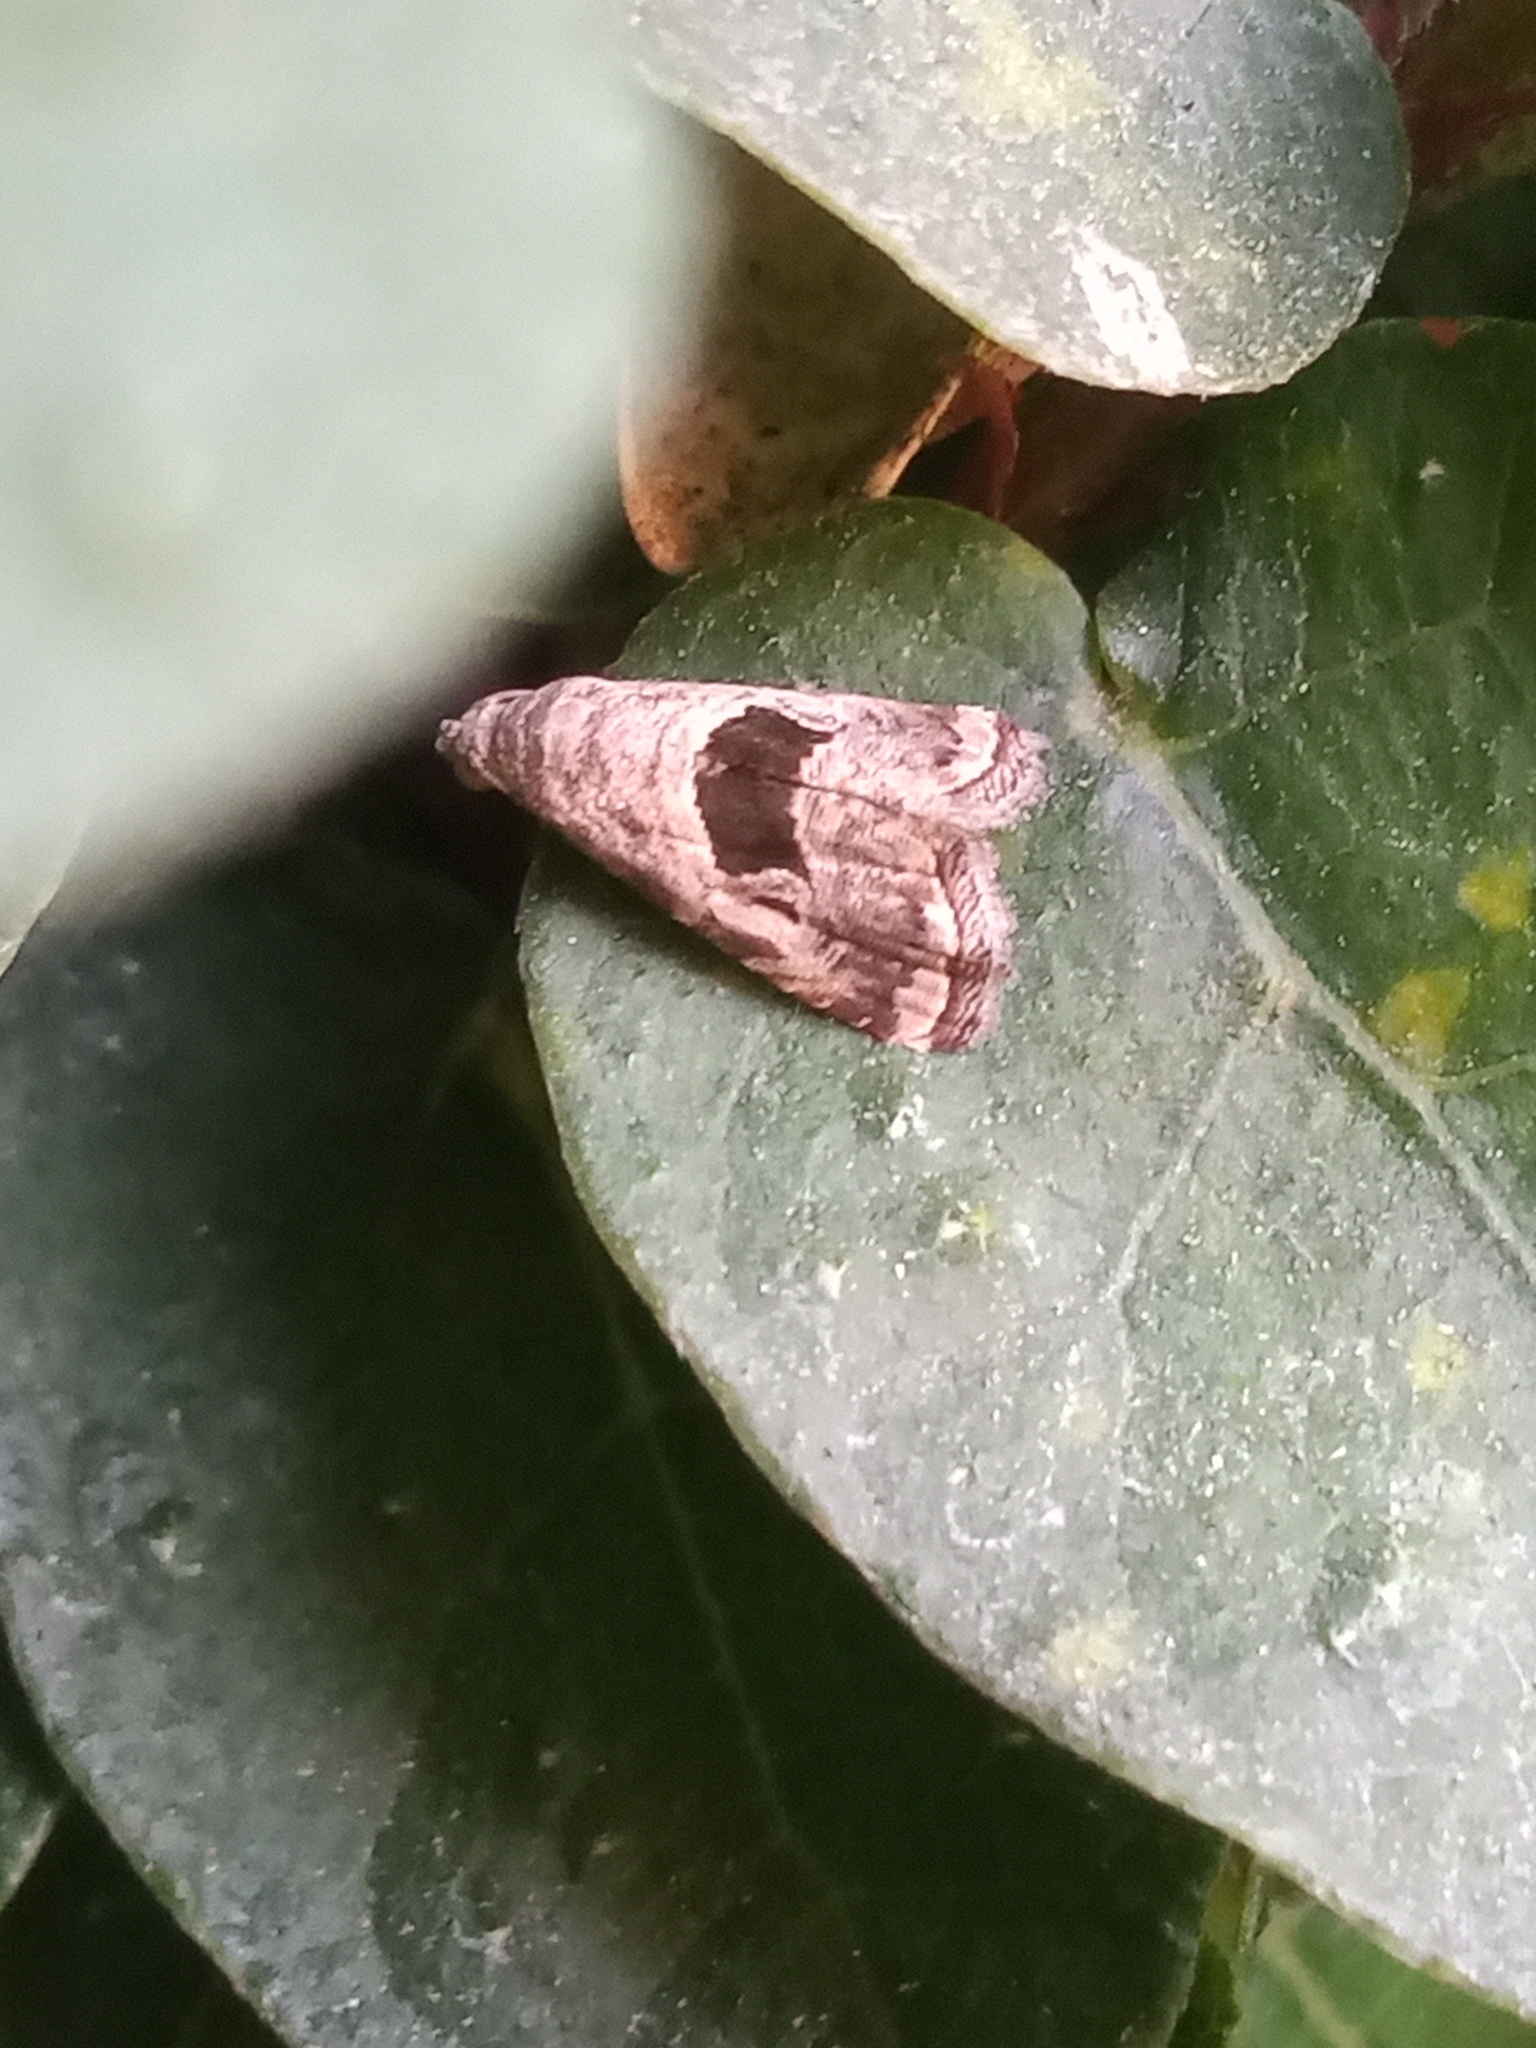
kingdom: Animalia
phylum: Arthropoda
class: Insecta
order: Lepidoptera
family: Noctuidae
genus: Tripudia
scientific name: Tripudia quadrifera
